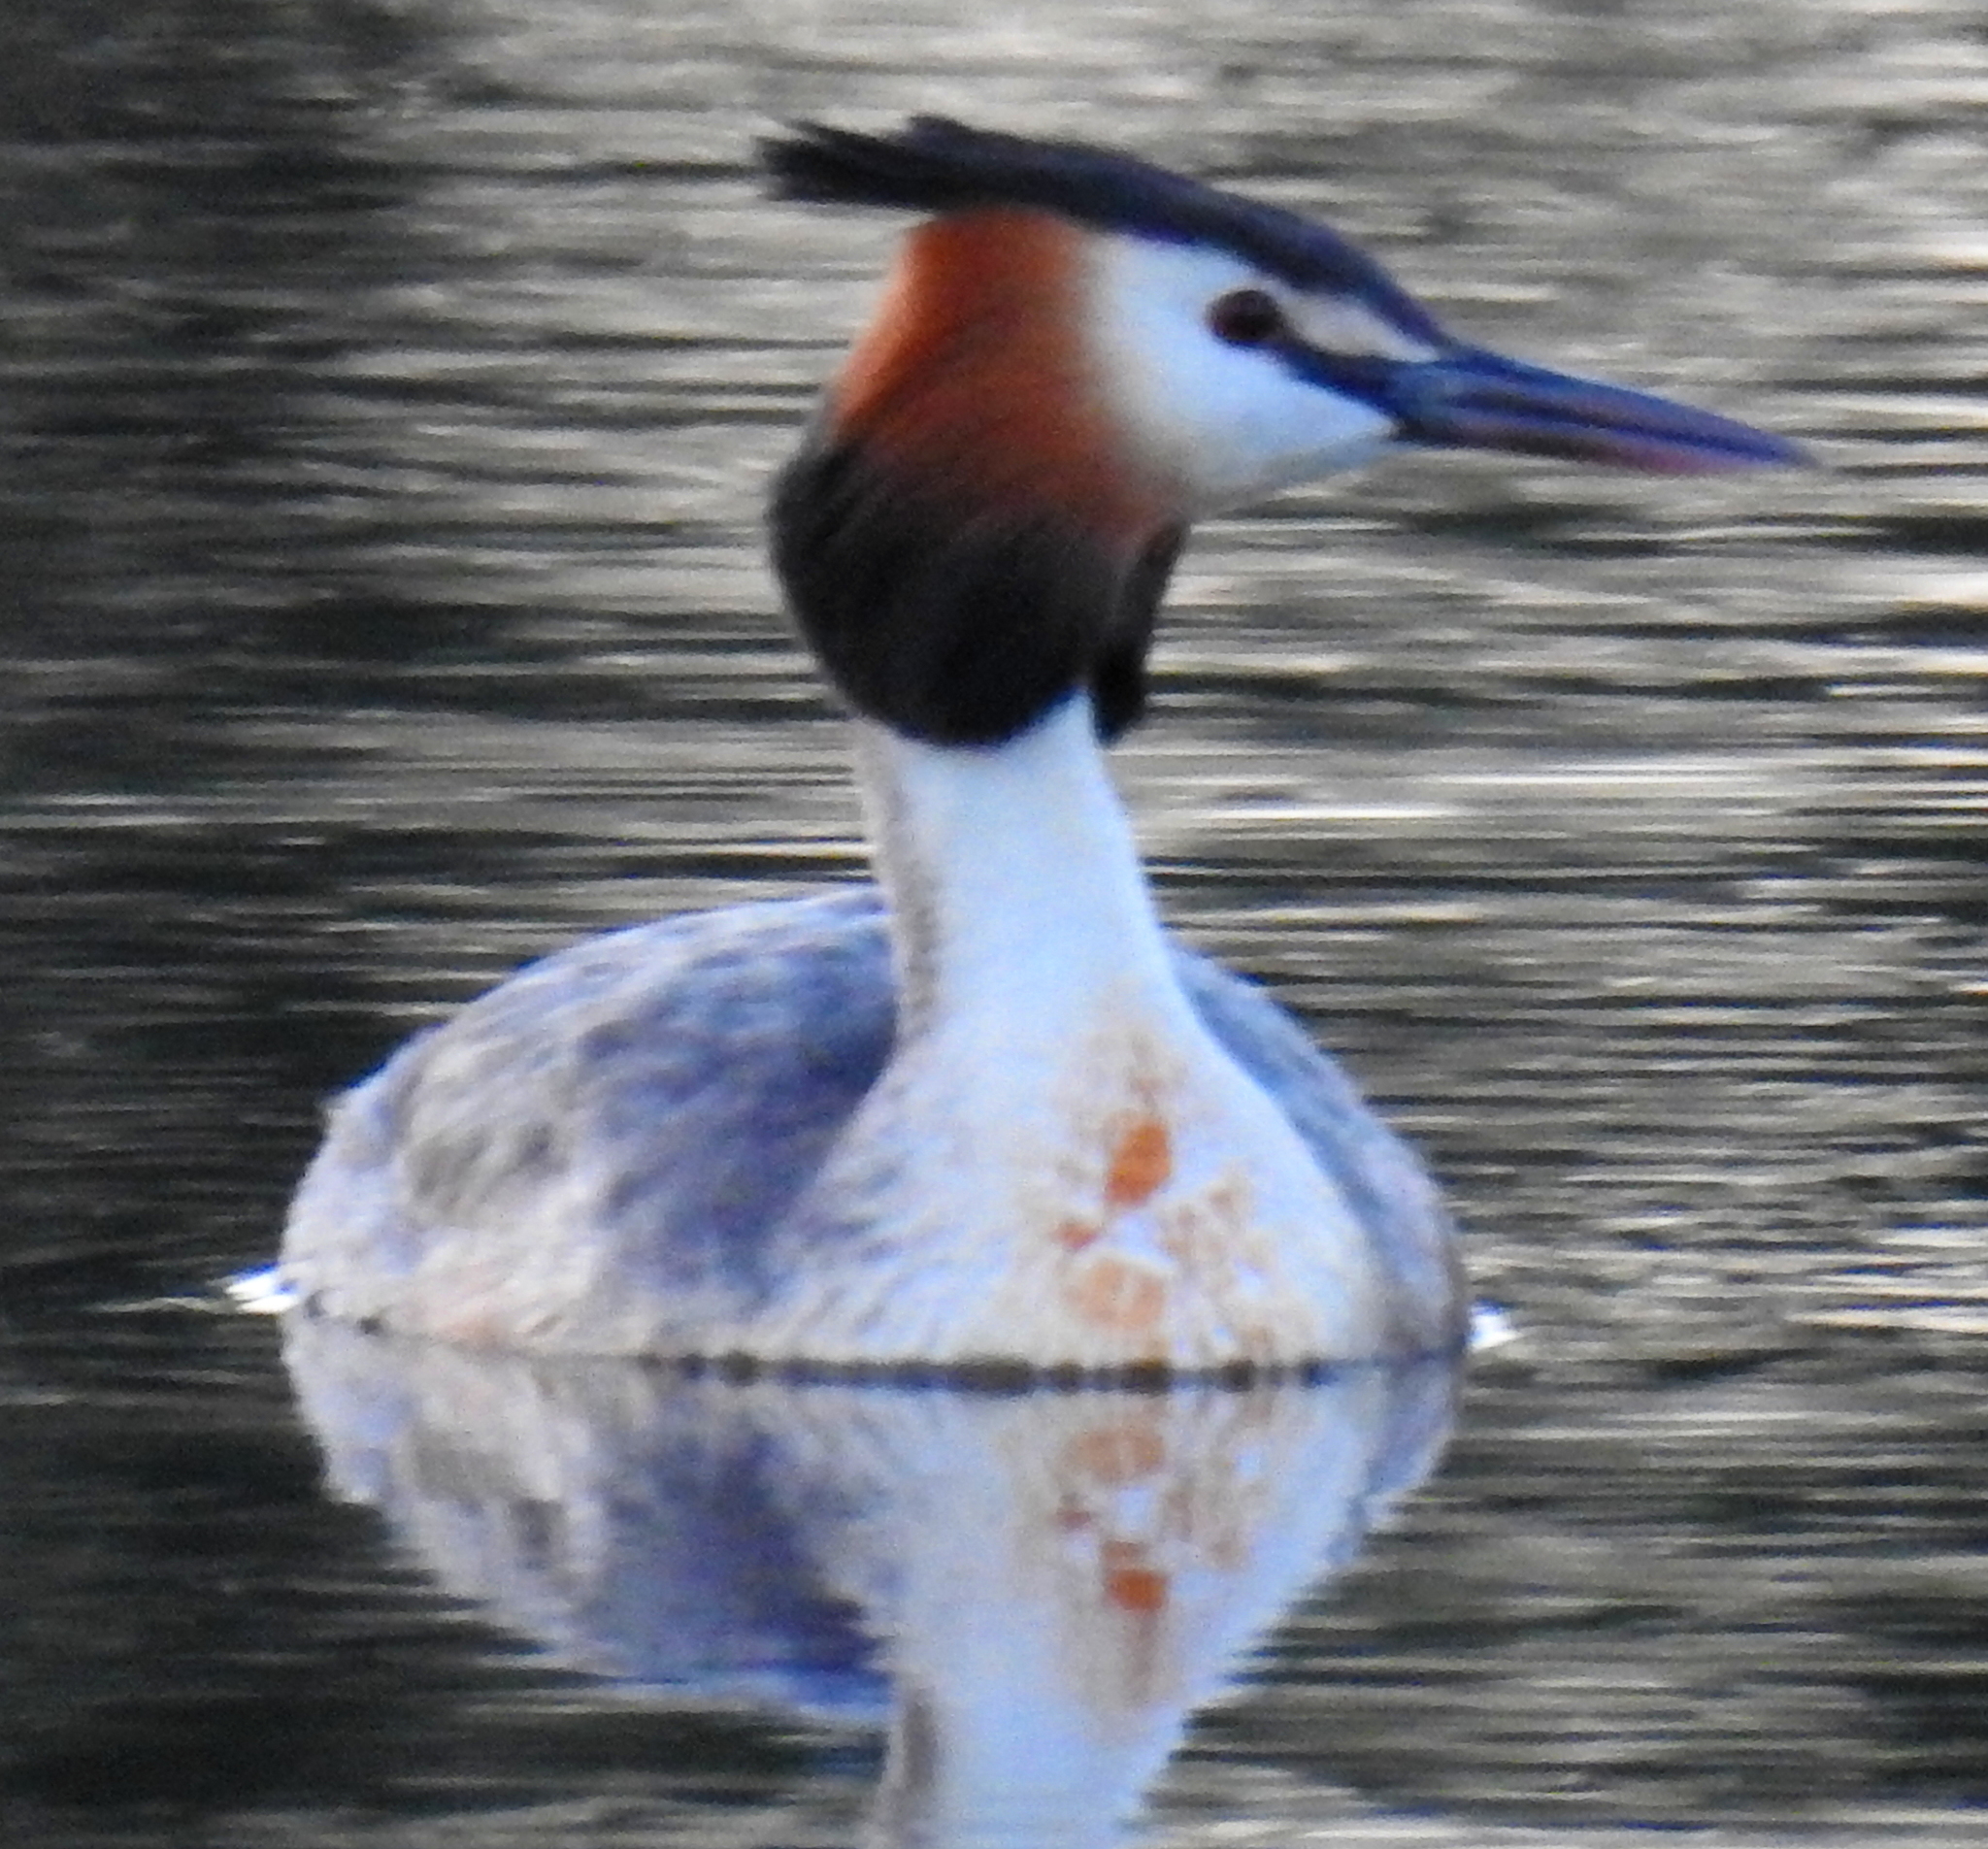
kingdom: Animalia
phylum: Chordata
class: Aves
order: Podicipediformes
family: Podicipedidae
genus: Podiceps
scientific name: Podiceps cristatus
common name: Great crested grebe
